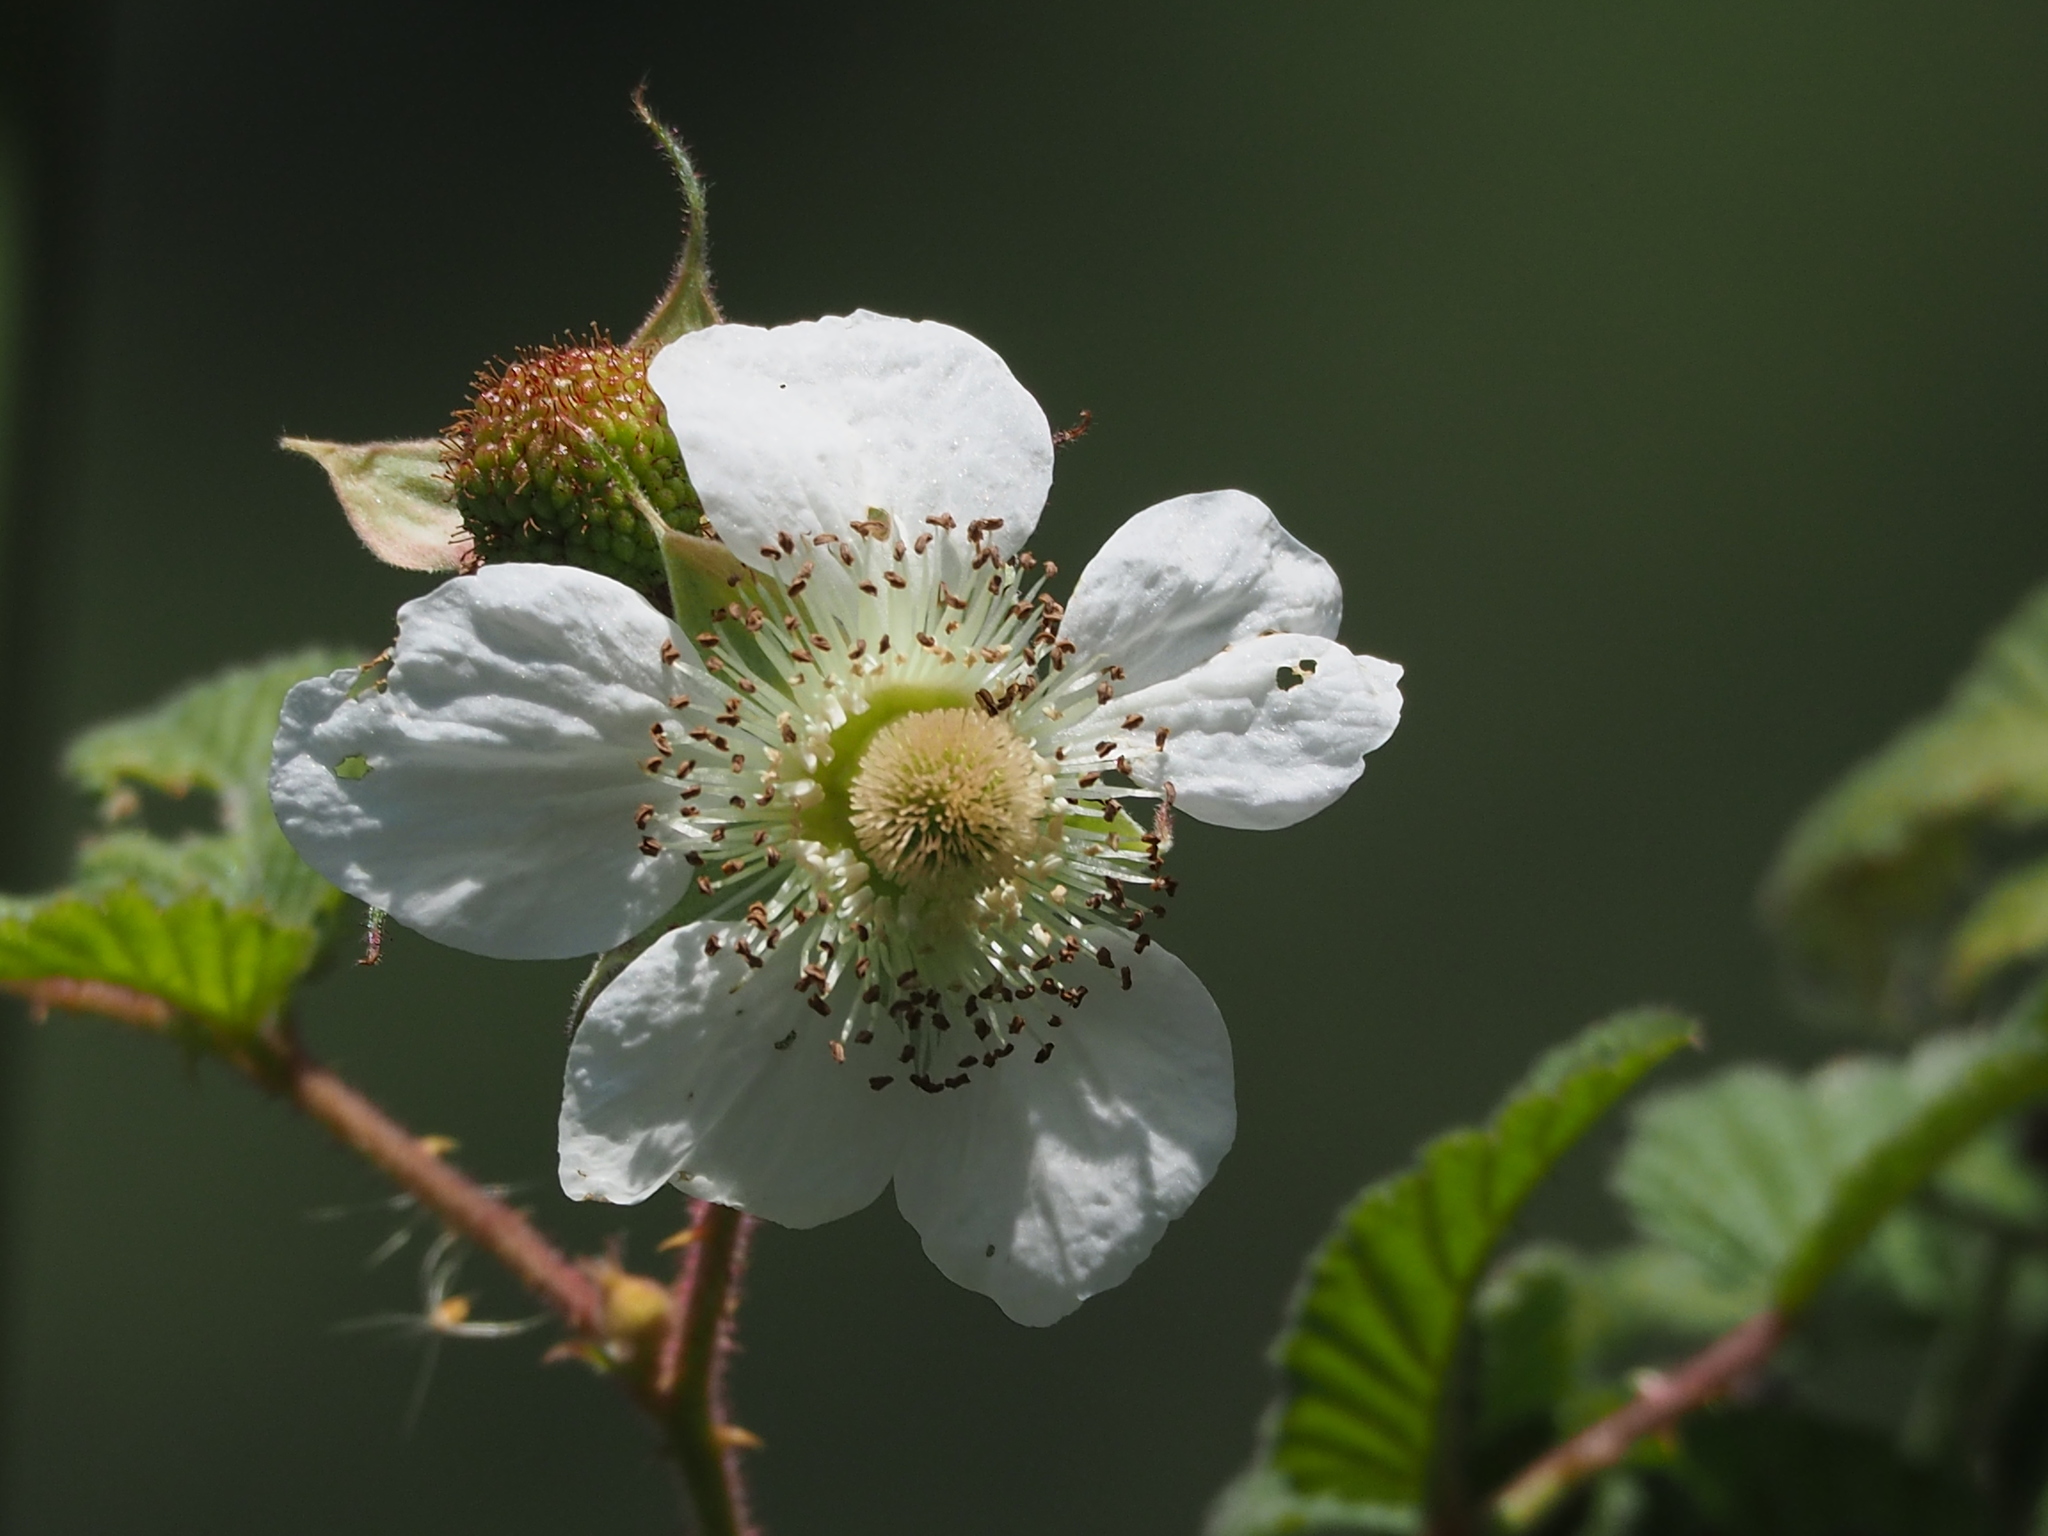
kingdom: Plantae
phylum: Tracheophyta
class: Magnoliopsida
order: Rosales
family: Rosaceae
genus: Rubus
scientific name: Rubus croceacanthus
